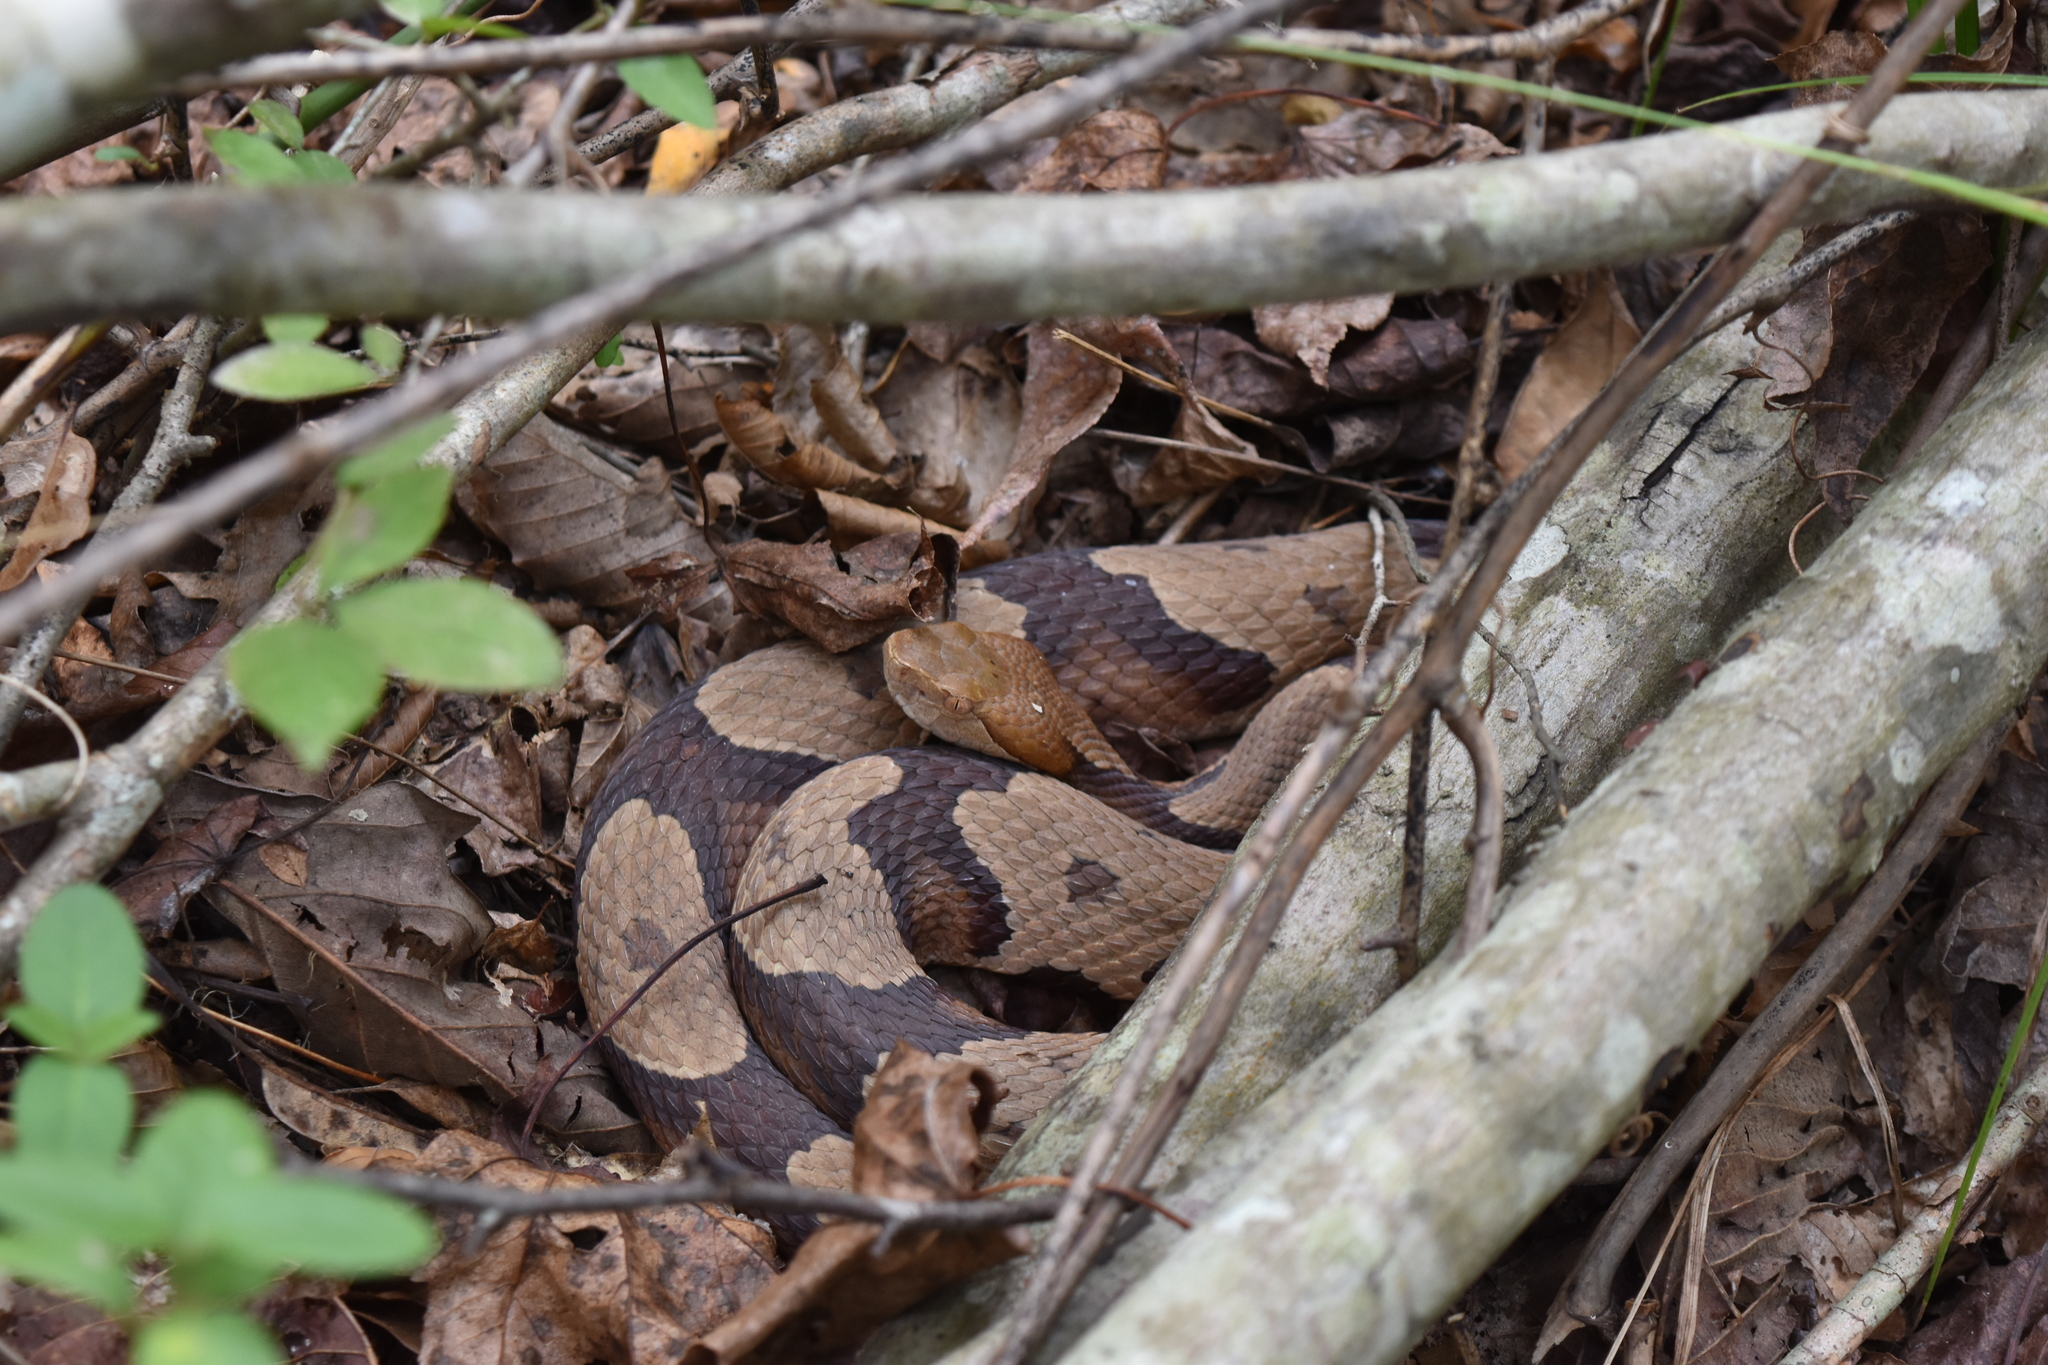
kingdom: Animalia
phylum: Chordata
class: Squamata
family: Viperidae
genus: Agkistrodon
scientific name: Agkistrodon contortrix
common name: Northern copperhead
